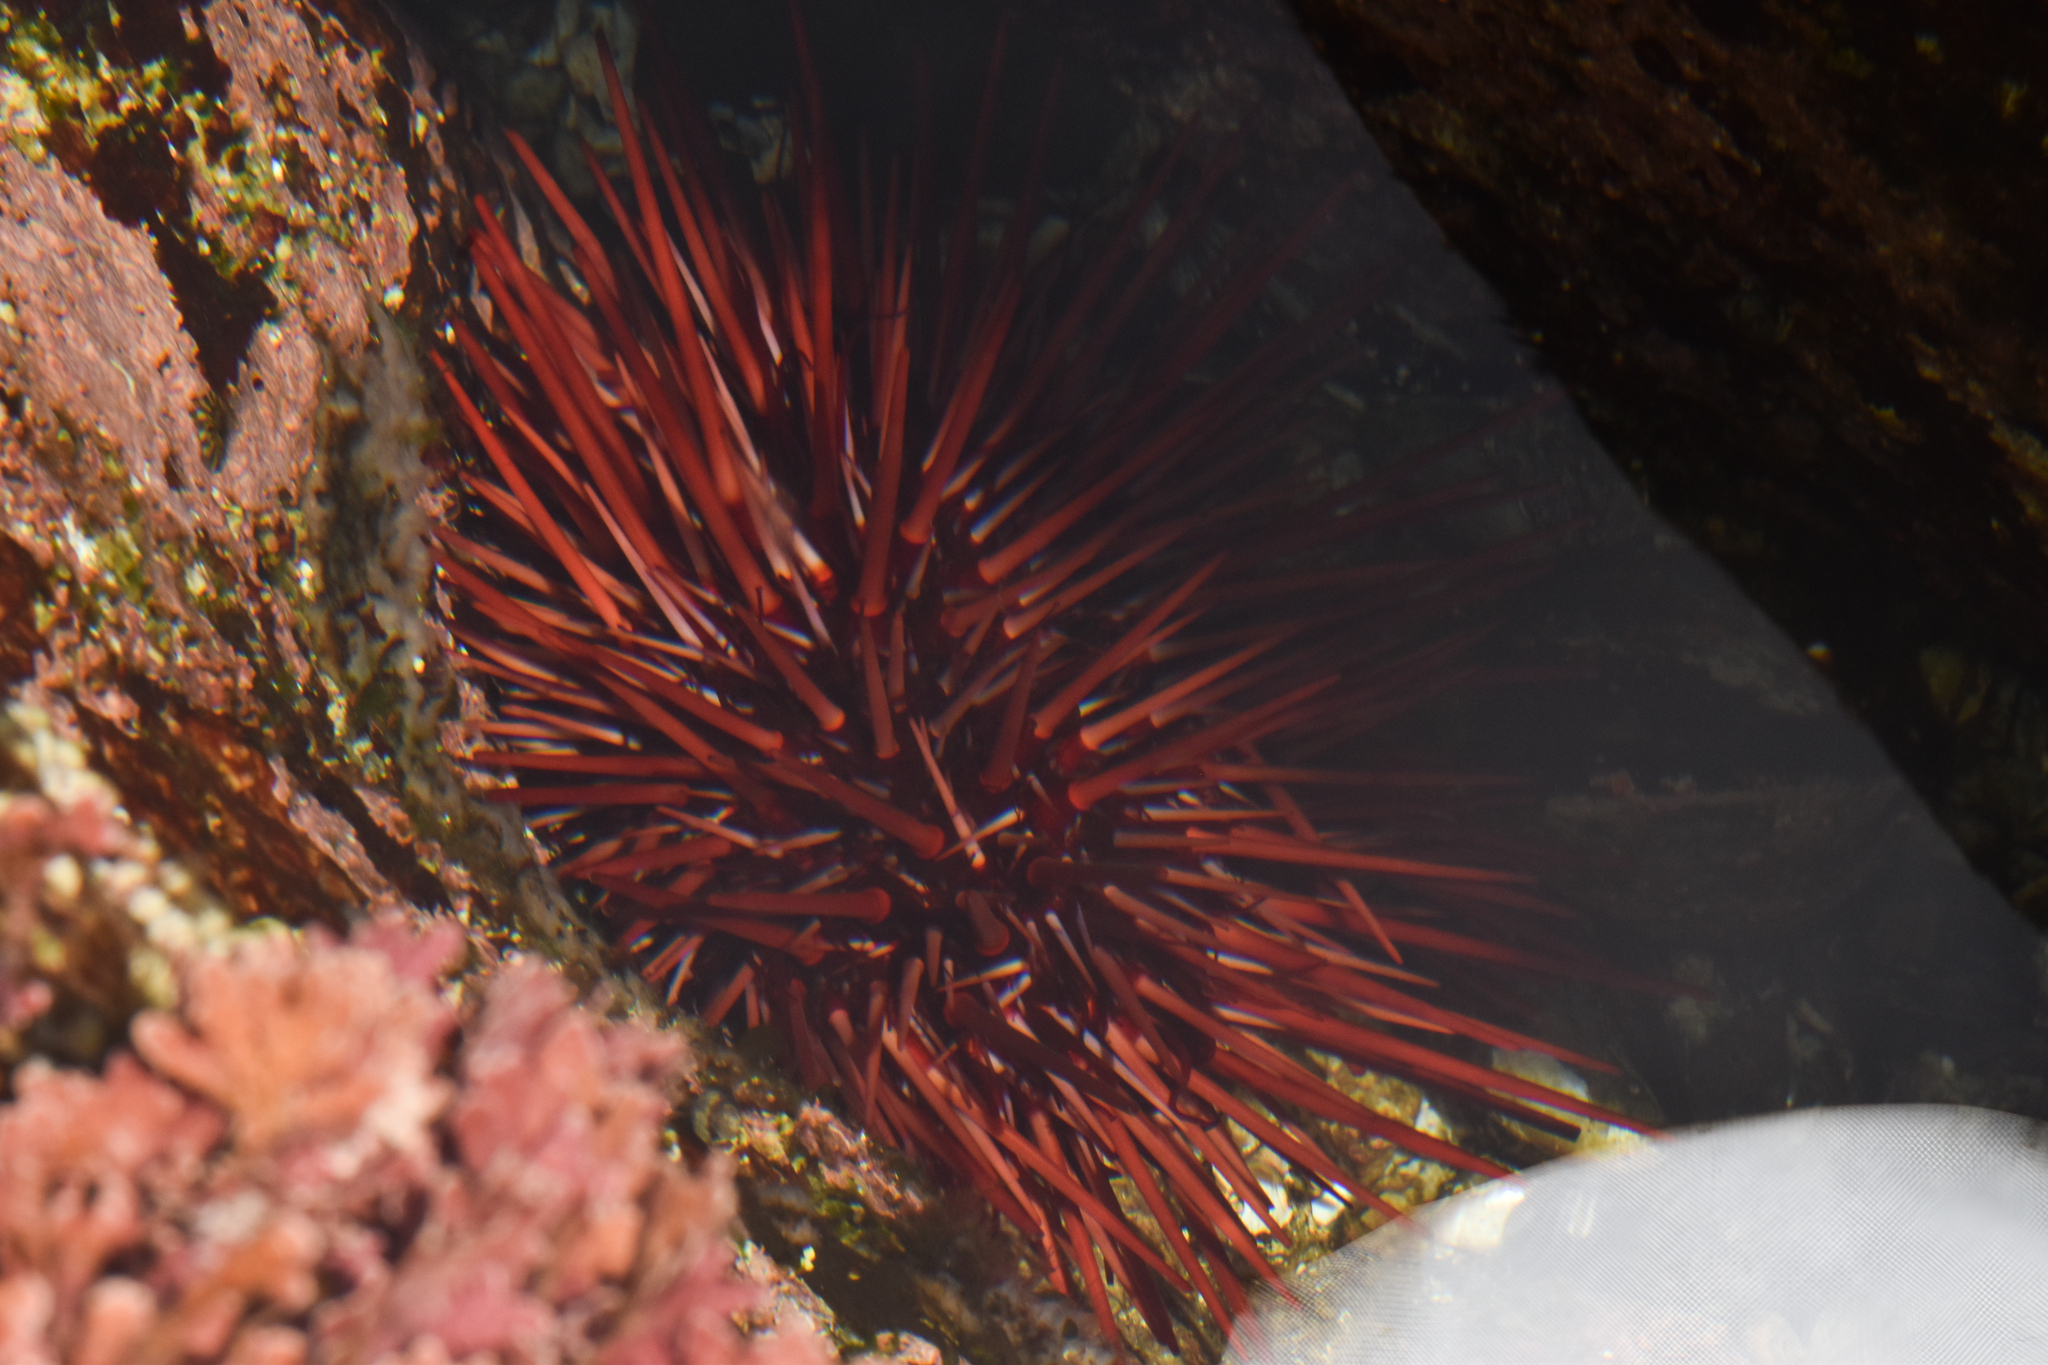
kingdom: Animalia
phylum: Echinodermata
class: Echinoidea
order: Camarodonta
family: Strongylocentrotidae
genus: Mesocentrotus
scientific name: Mesocentrotus franciscanus
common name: Red sea urchin
